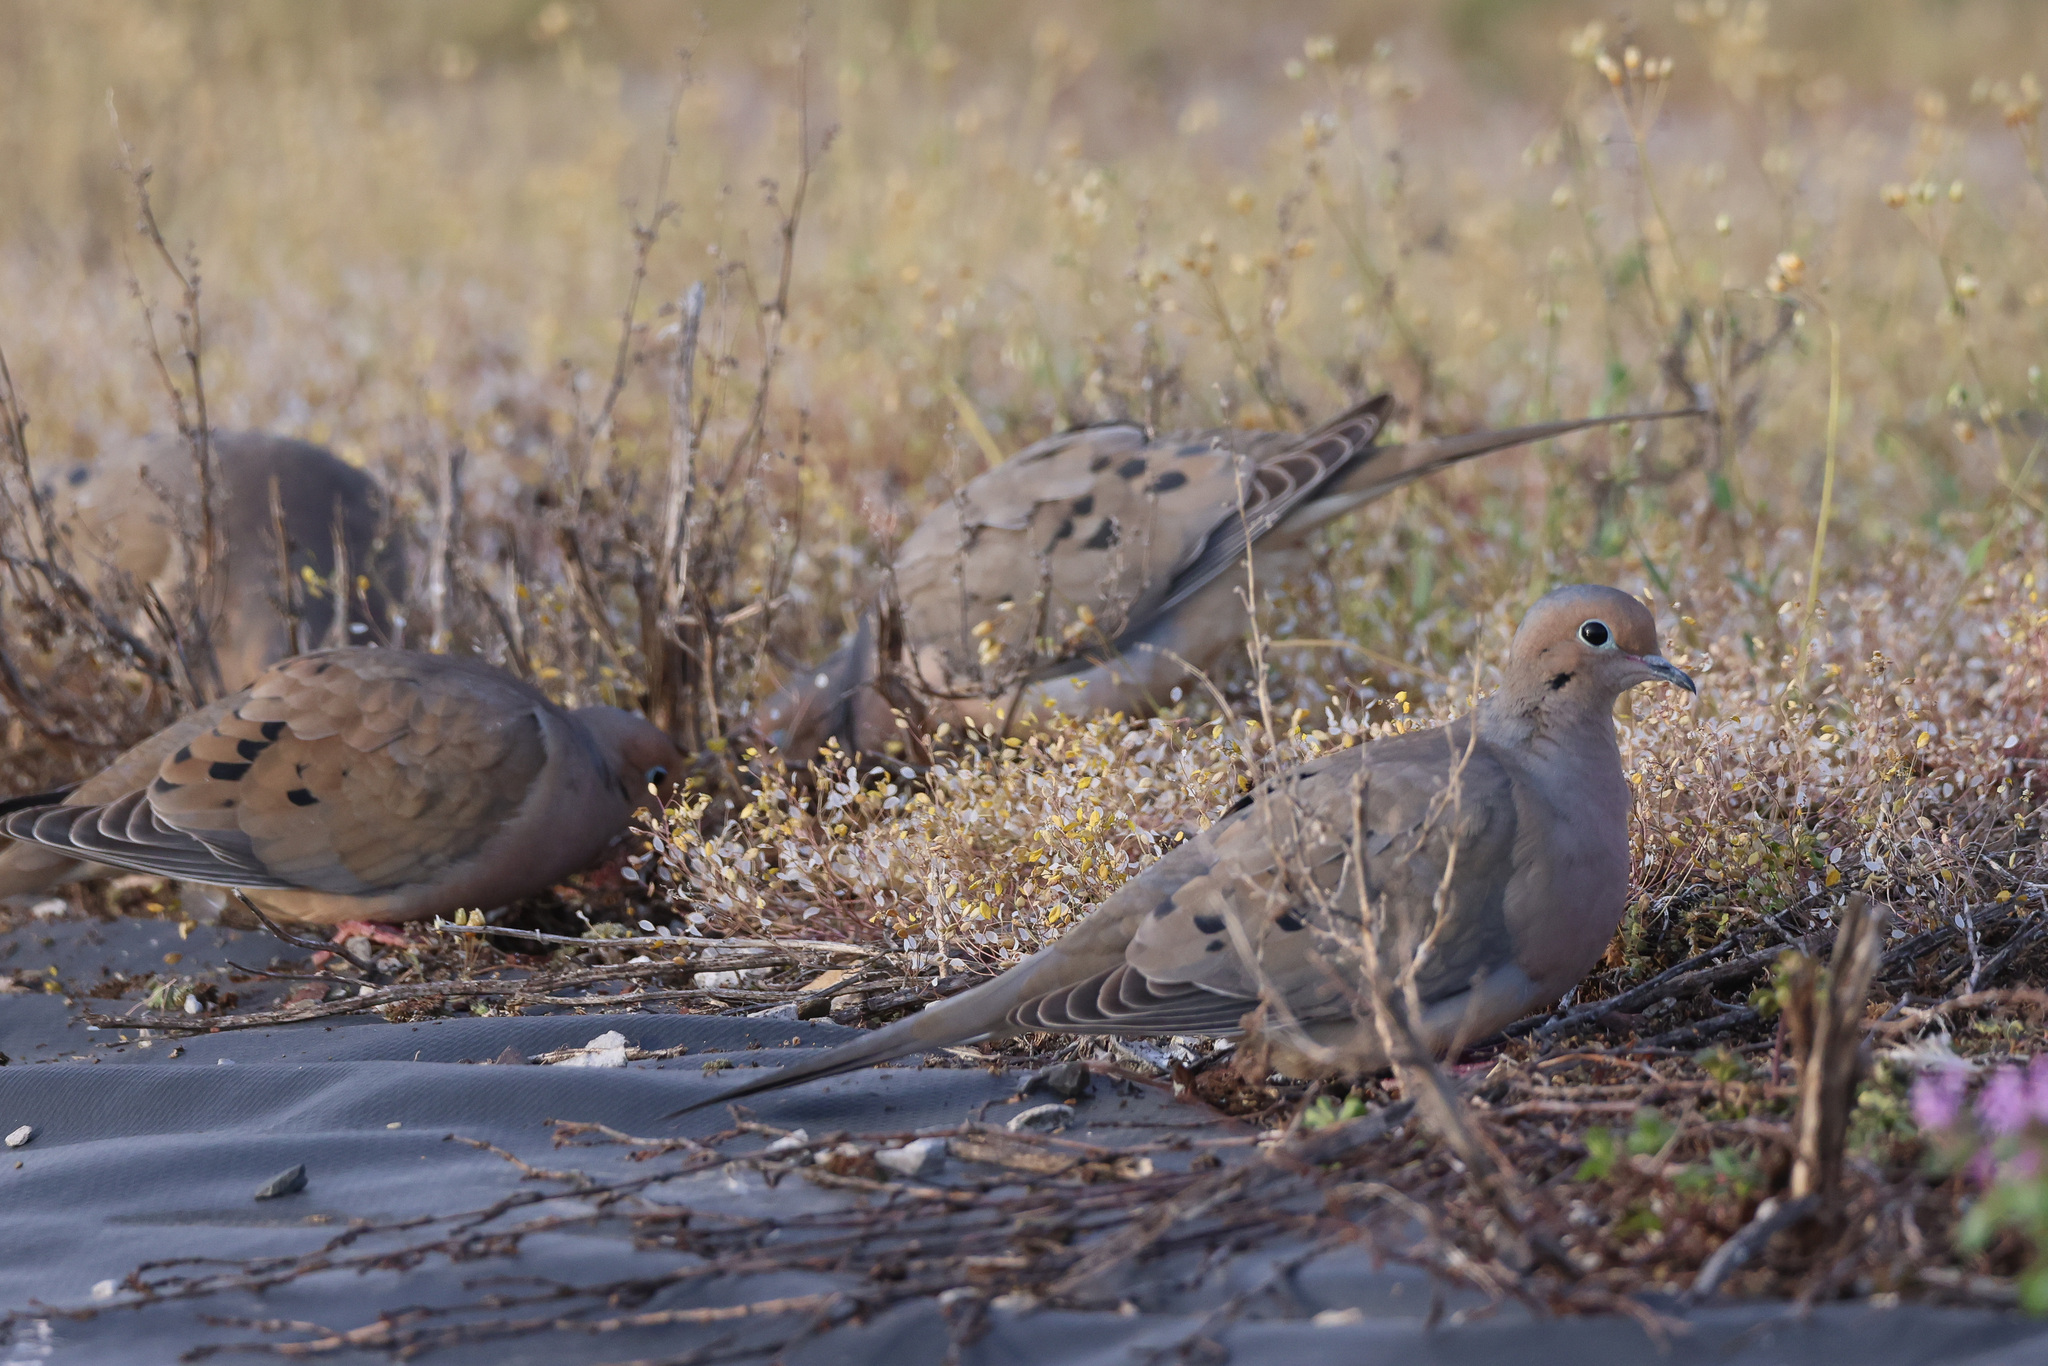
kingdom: Animalia
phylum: Chordata
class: Aves
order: Columbiformes
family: Columbidae
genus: Zenaida
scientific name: Zenaida macroura
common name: Mourning dove
